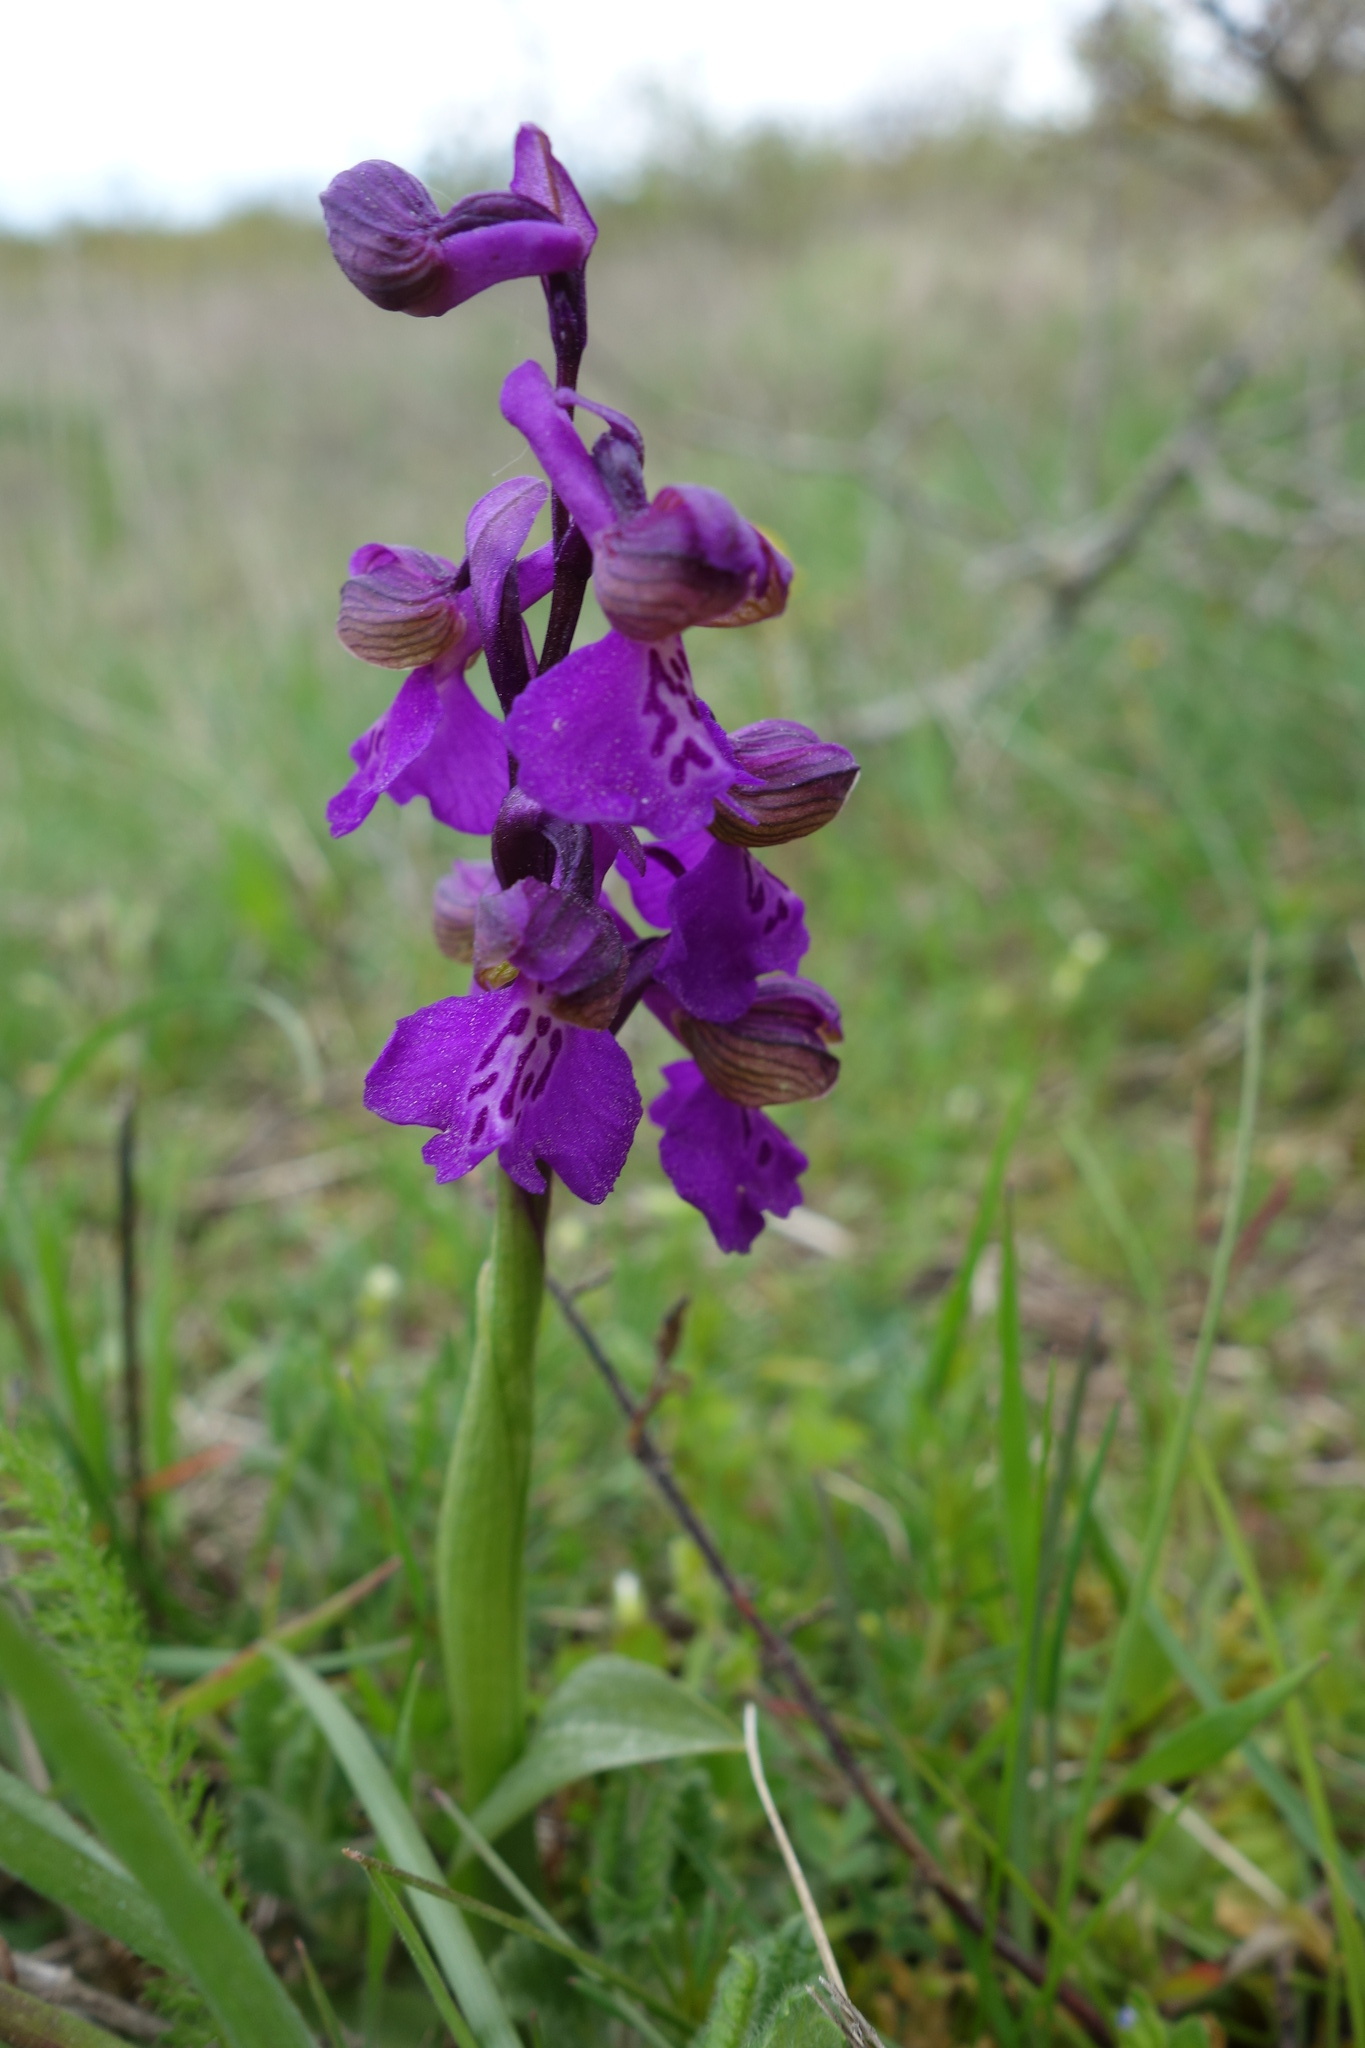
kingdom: Plantae
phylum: Tracheophyta
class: Liliopsida
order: Asparagales
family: Orchidaceae
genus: Anacamptis
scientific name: Anacamptis morio
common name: Green-winged orchid
